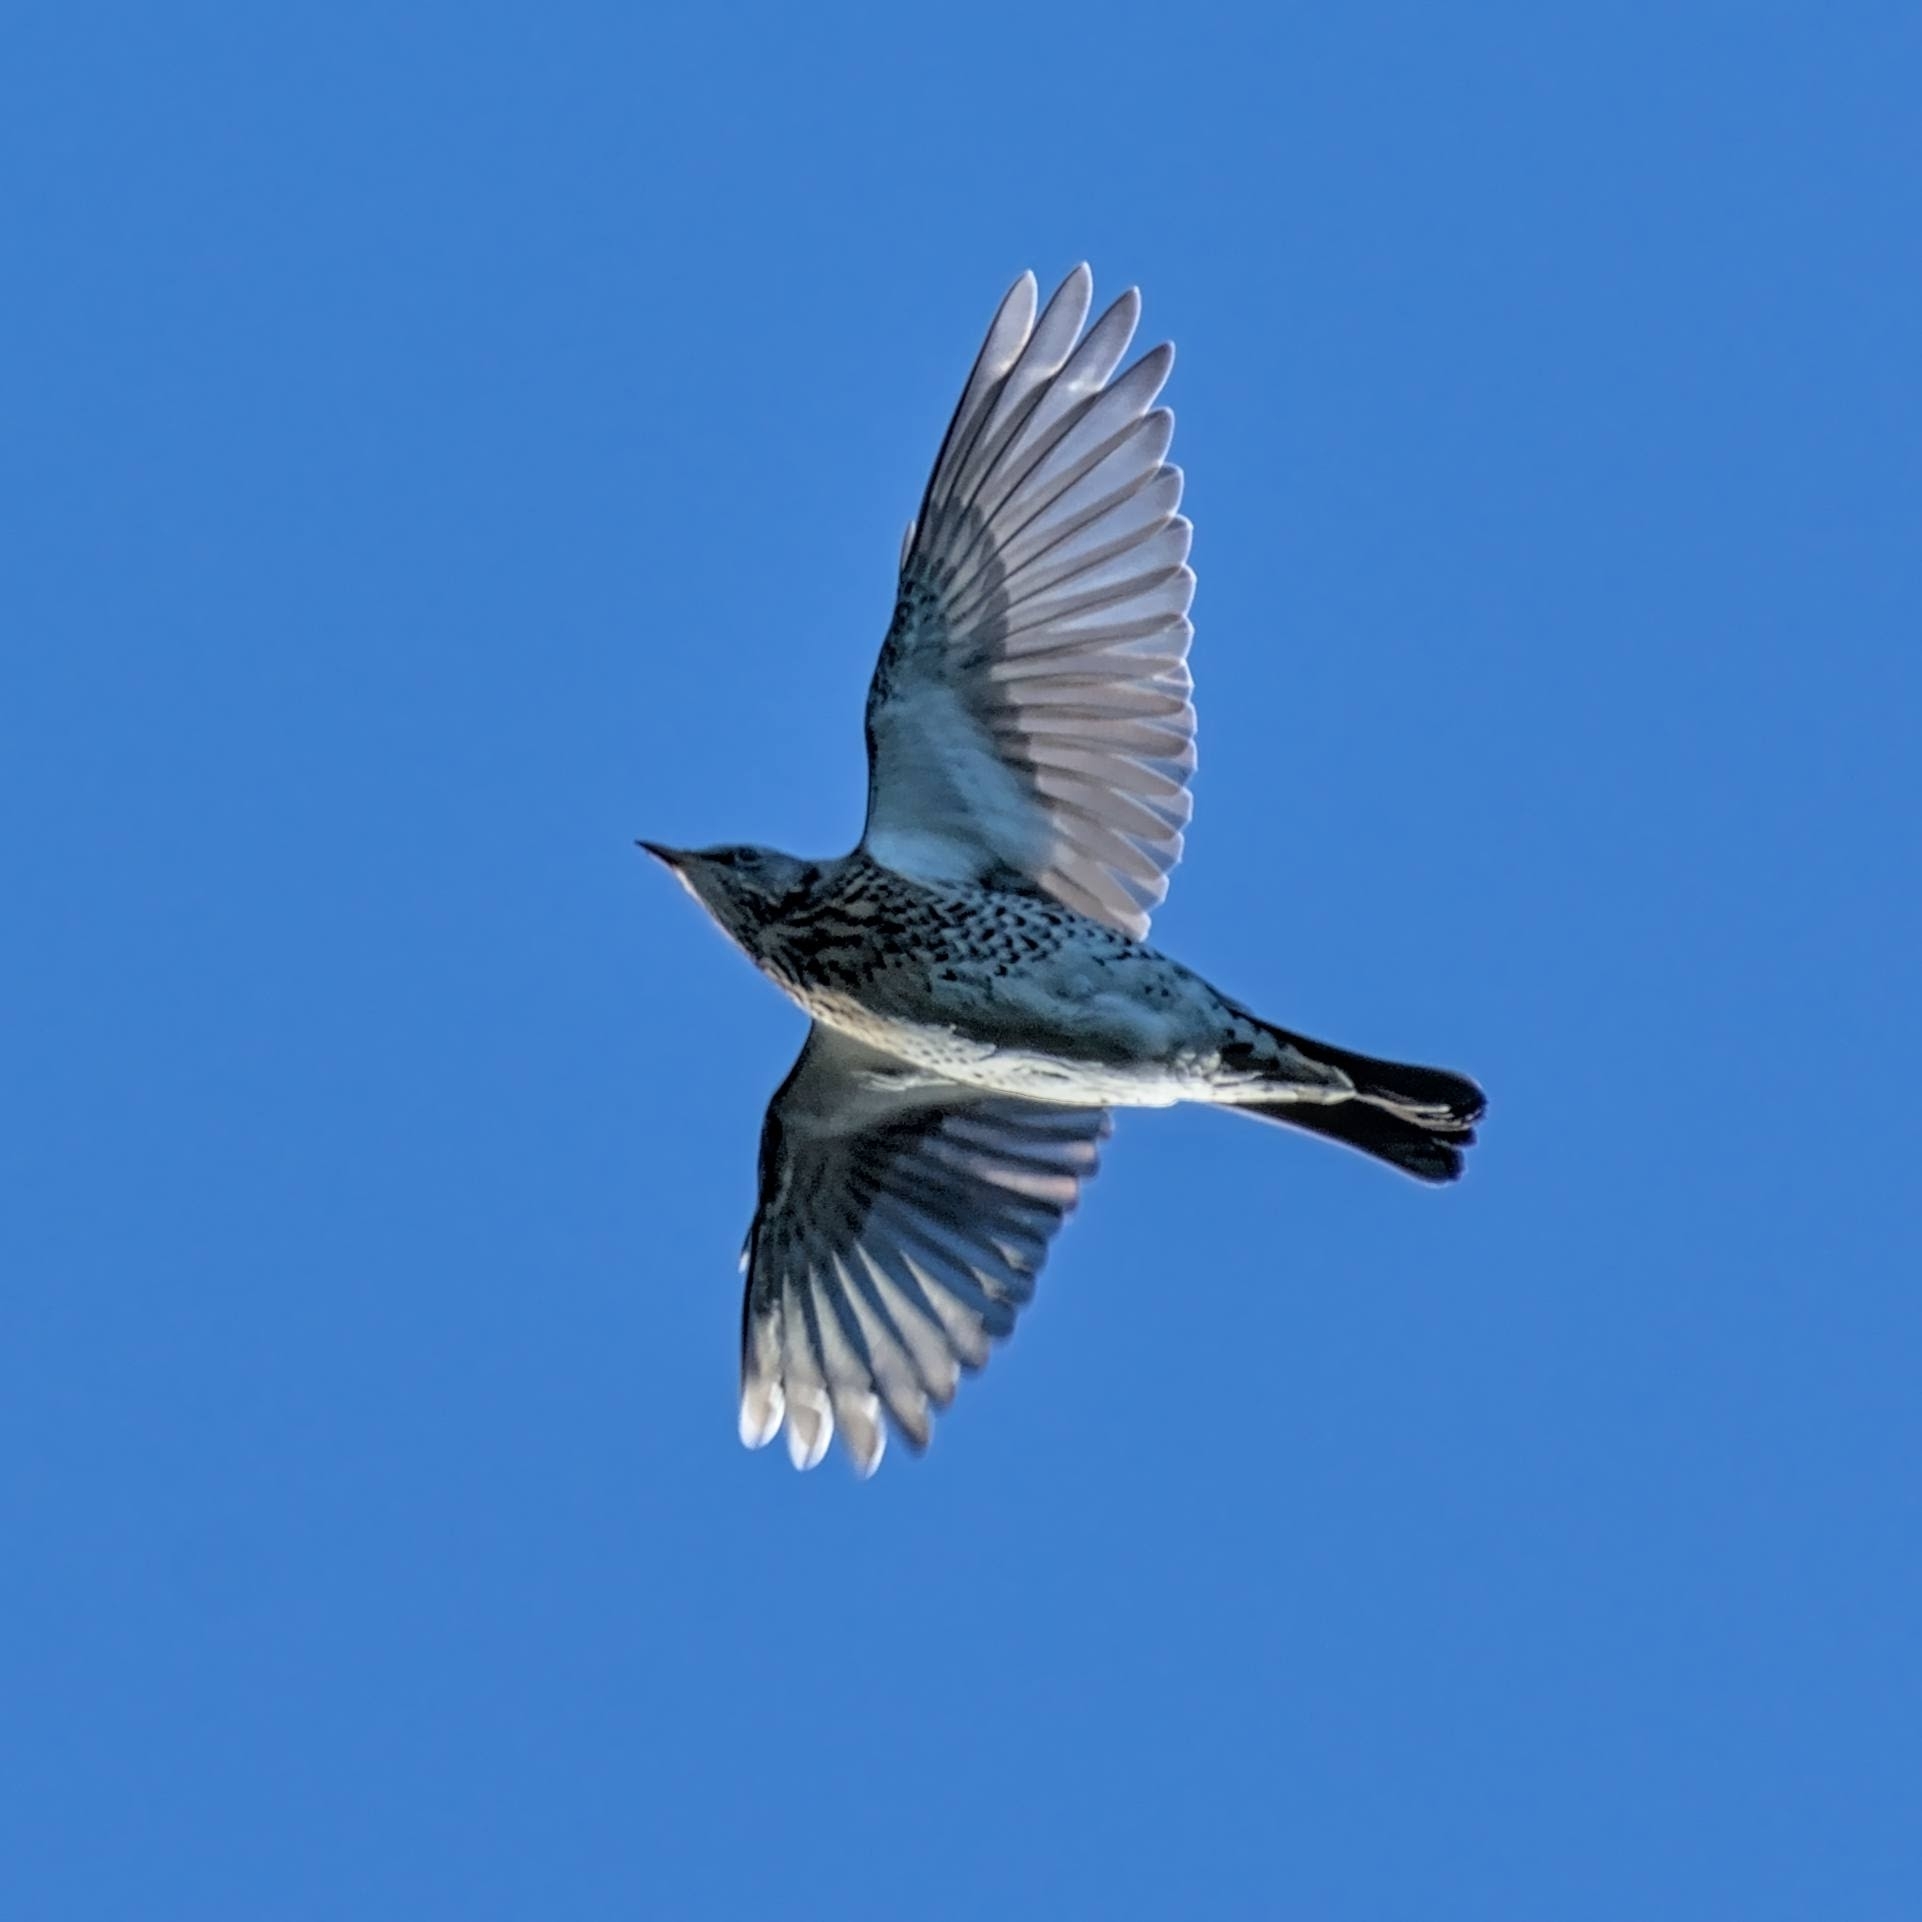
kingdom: Animalia
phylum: Chordata
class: Aves
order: Passeriformes
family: Turdidae
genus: Turdus
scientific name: Turdus pilaris
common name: Fieldfare
